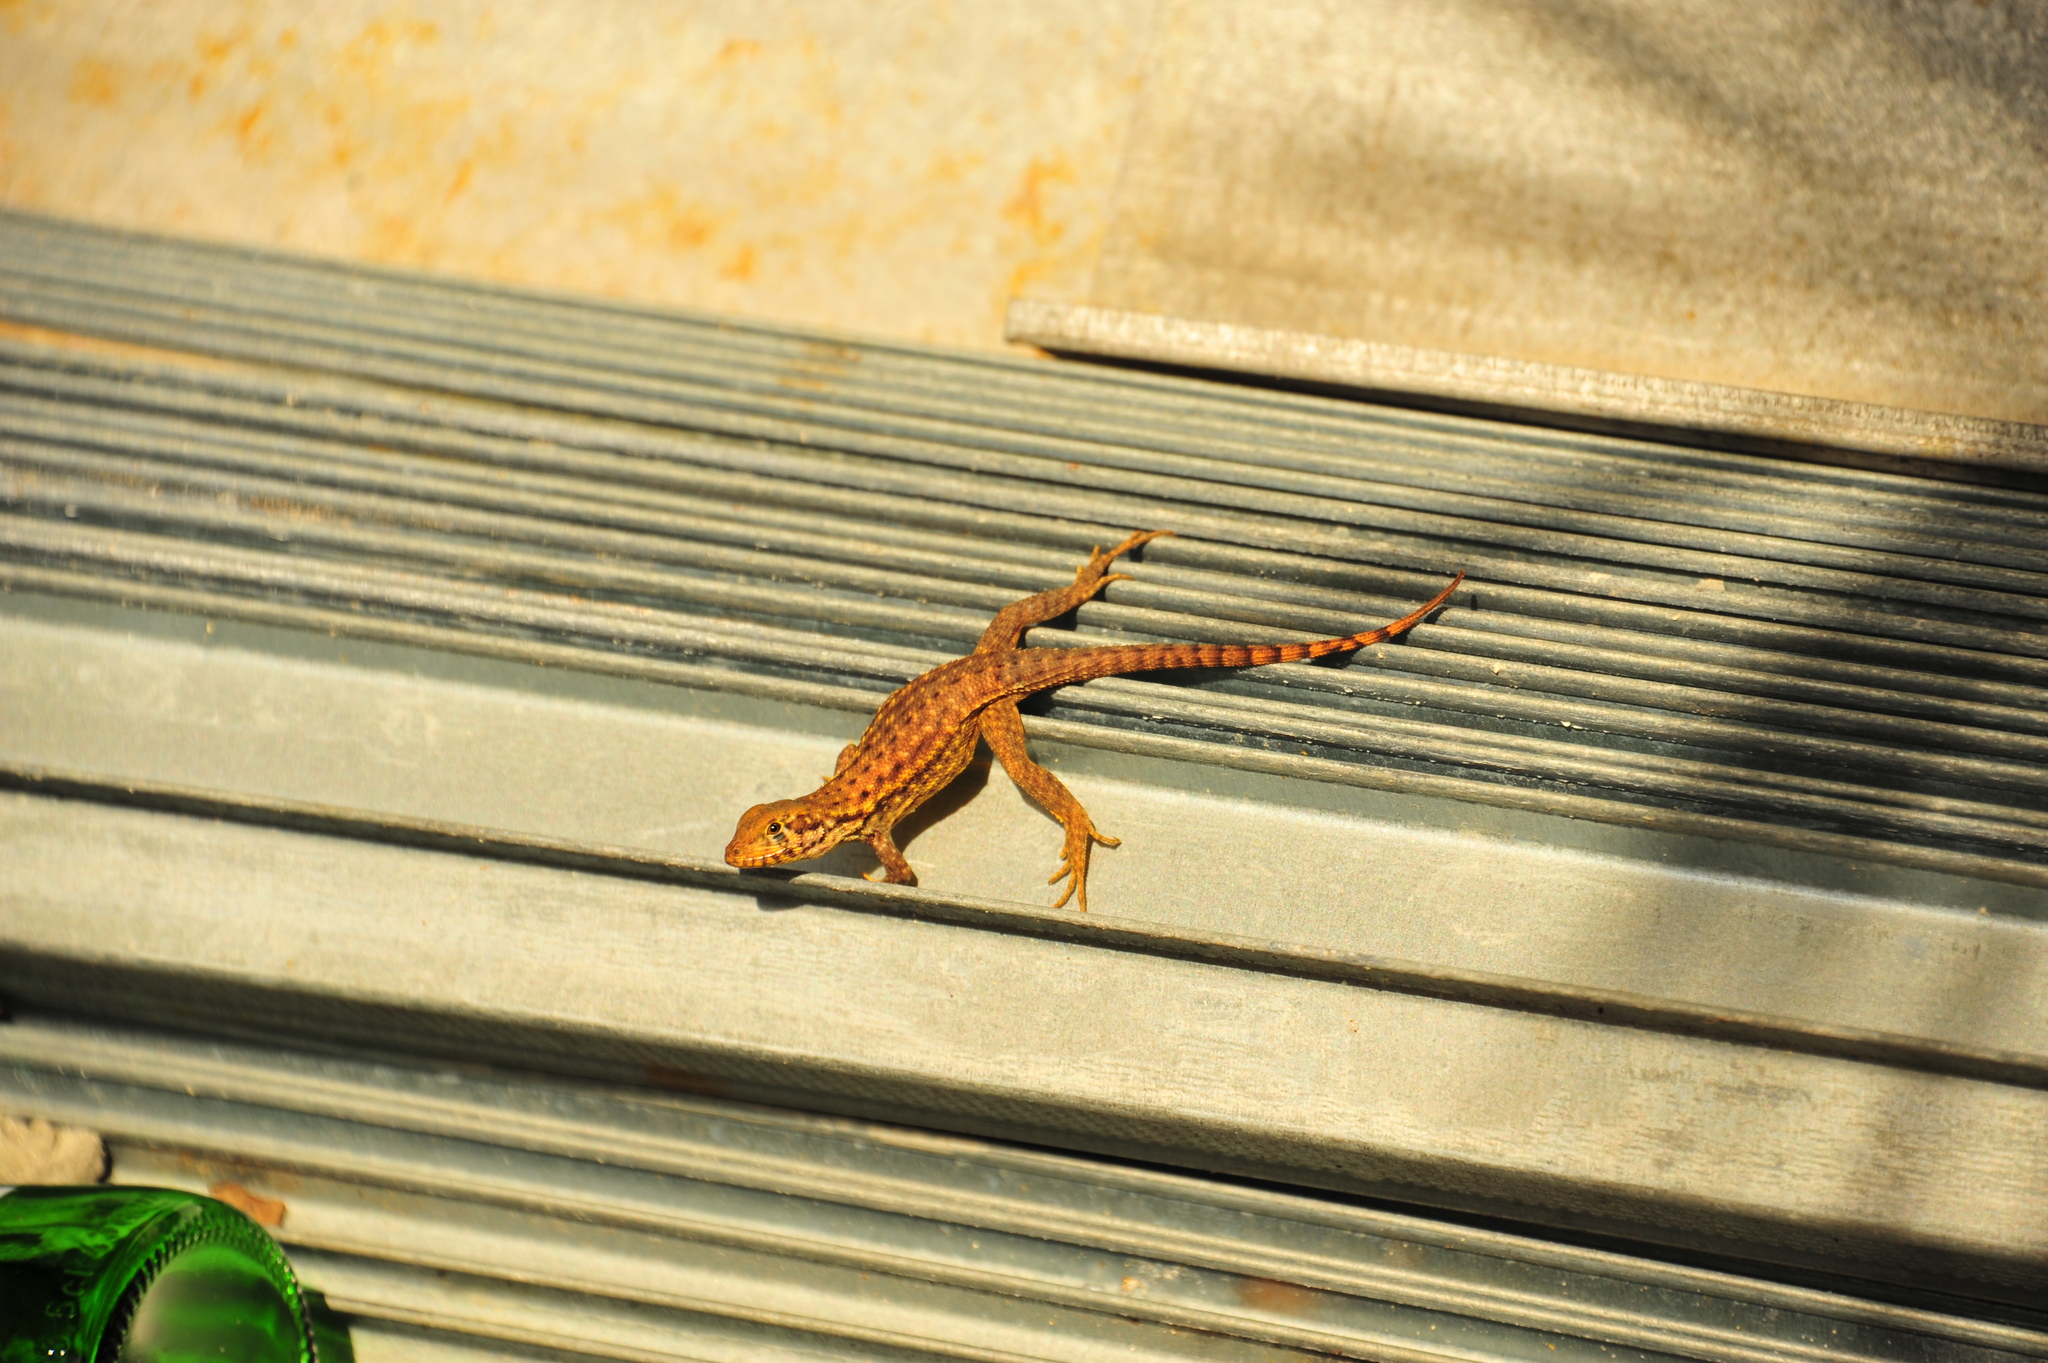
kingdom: Animalia
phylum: Chordata
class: Squamata
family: Leiocephalidae
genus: Leiocephalus
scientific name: Leiocephalus carinatus
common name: Northern curly-tailed lizard
